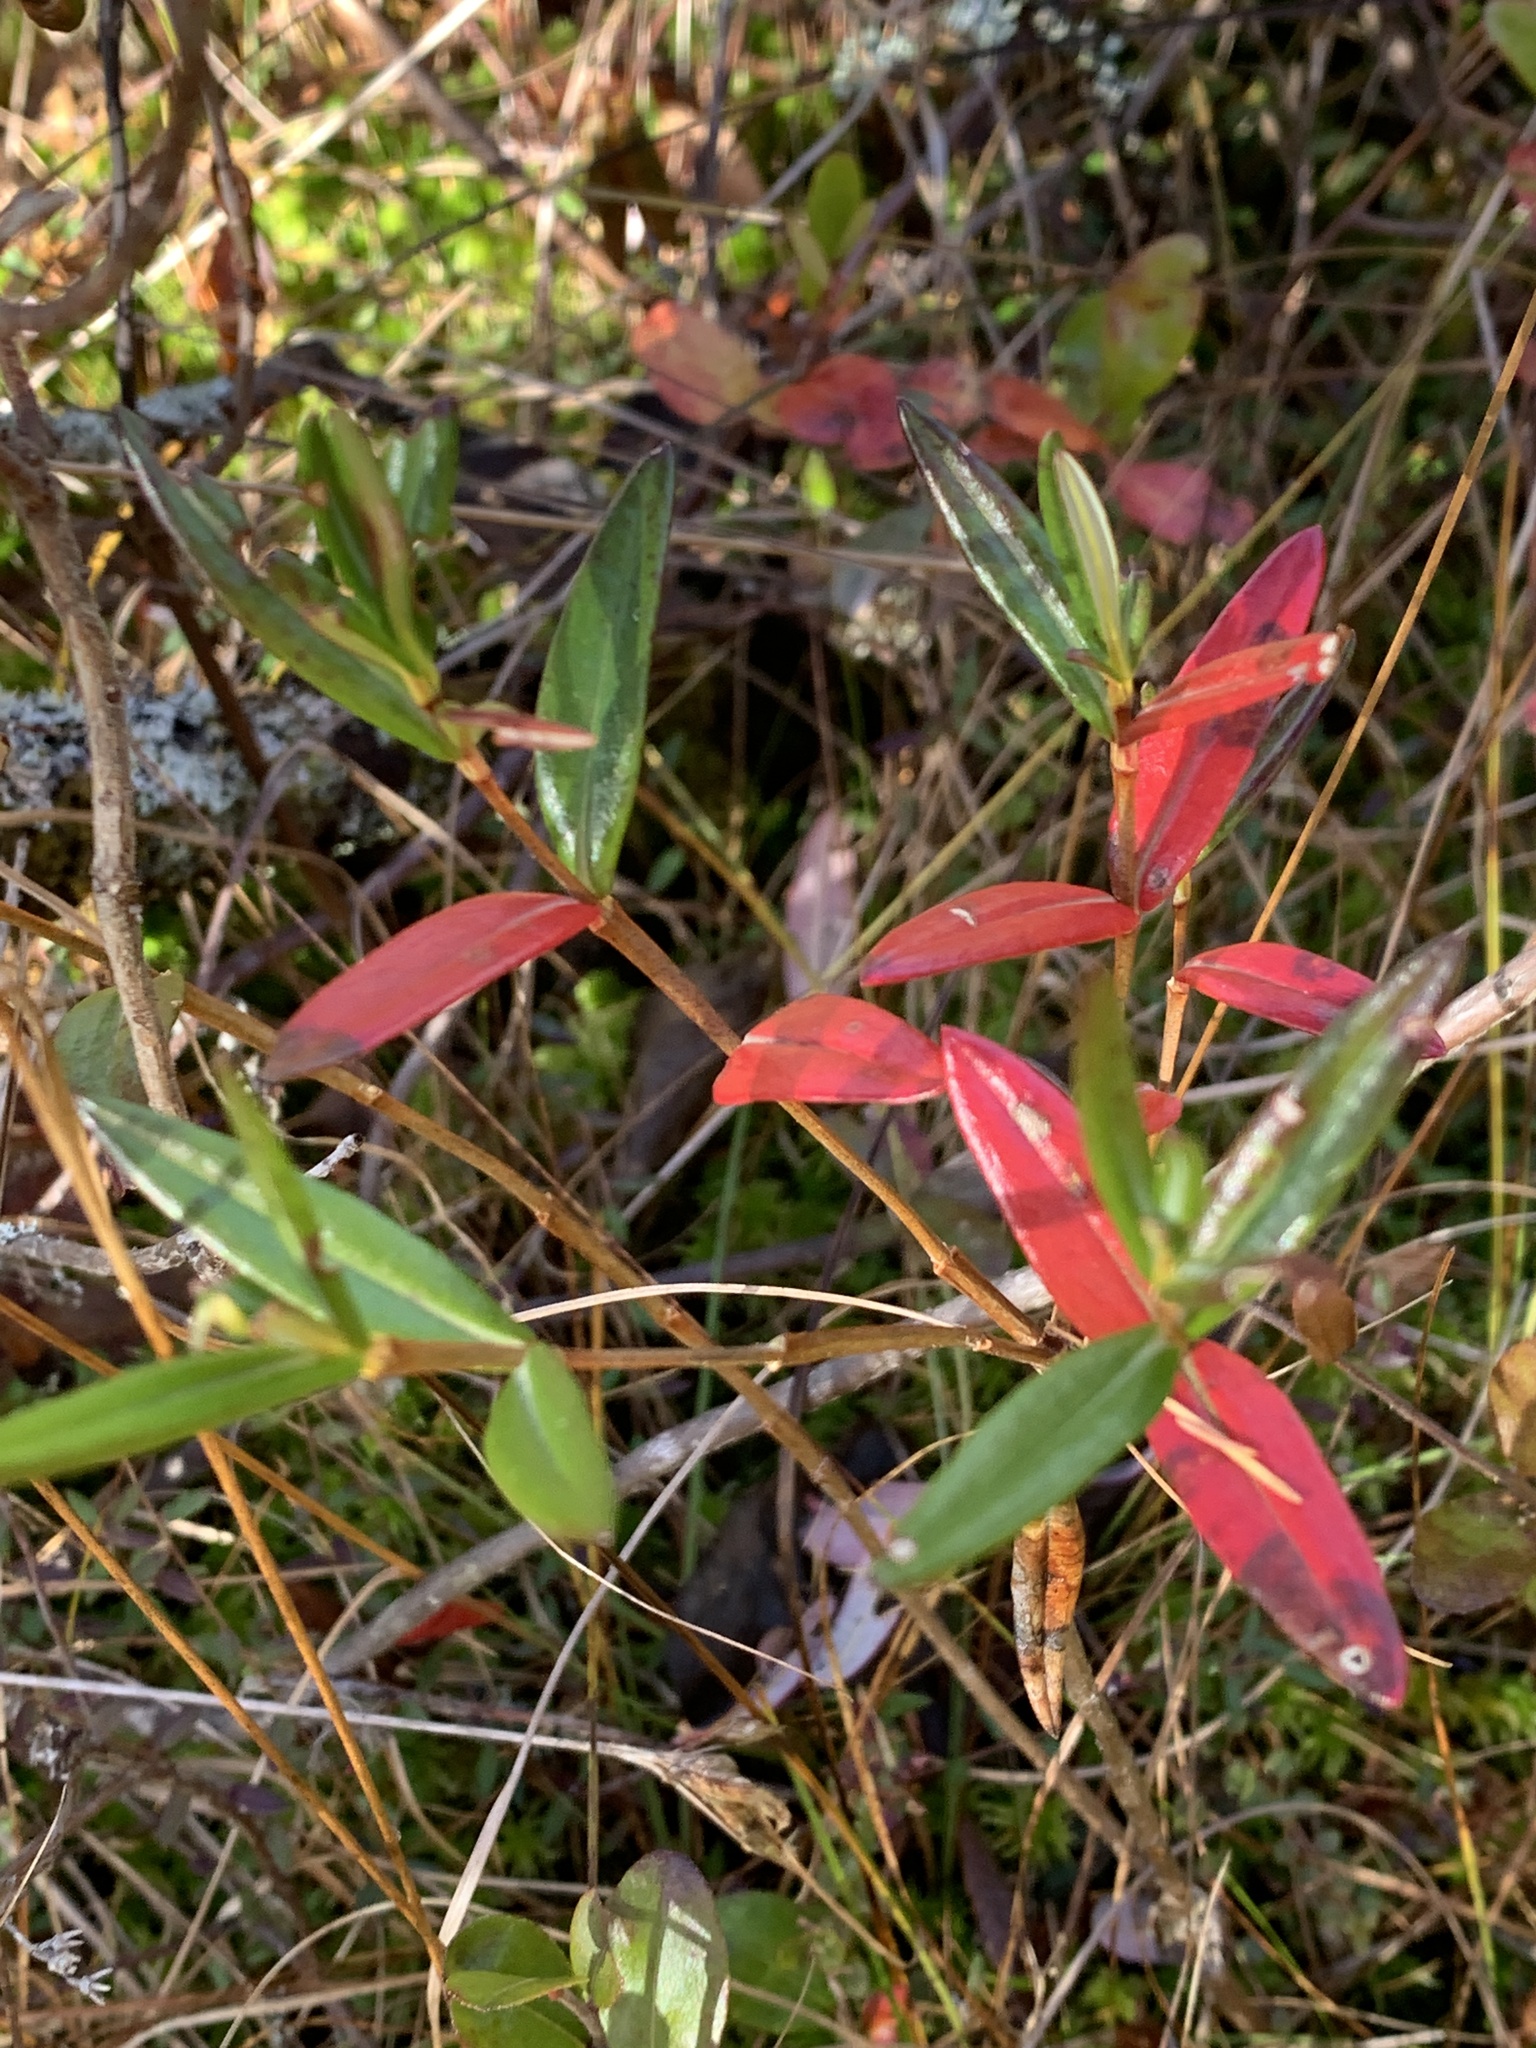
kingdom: Plantae
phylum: Tracheophyta
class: Magnoliopsida
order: Ericales
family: Ericaceae
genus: Kalmia
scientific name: Kalmia polifolia
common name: Bog-laurel
